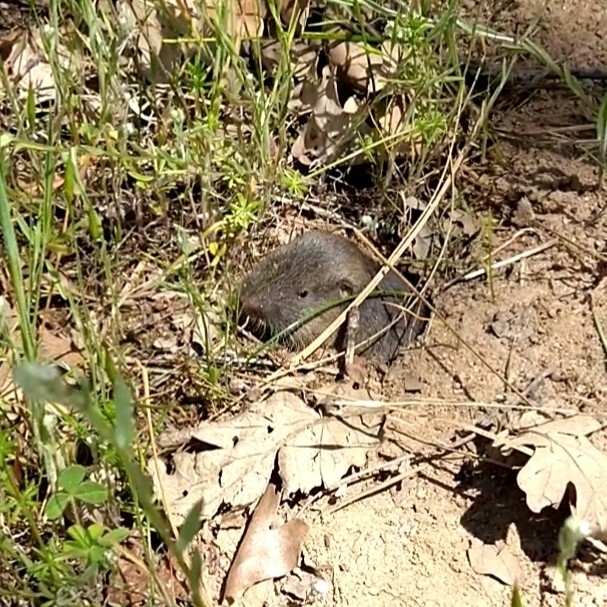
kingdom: Animalia
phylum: Chordata
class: Mammalia
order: Rodentia
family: Geomyidae
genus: Thomomys
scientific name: Thomomys monticola
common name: Mountain pocket gopher
